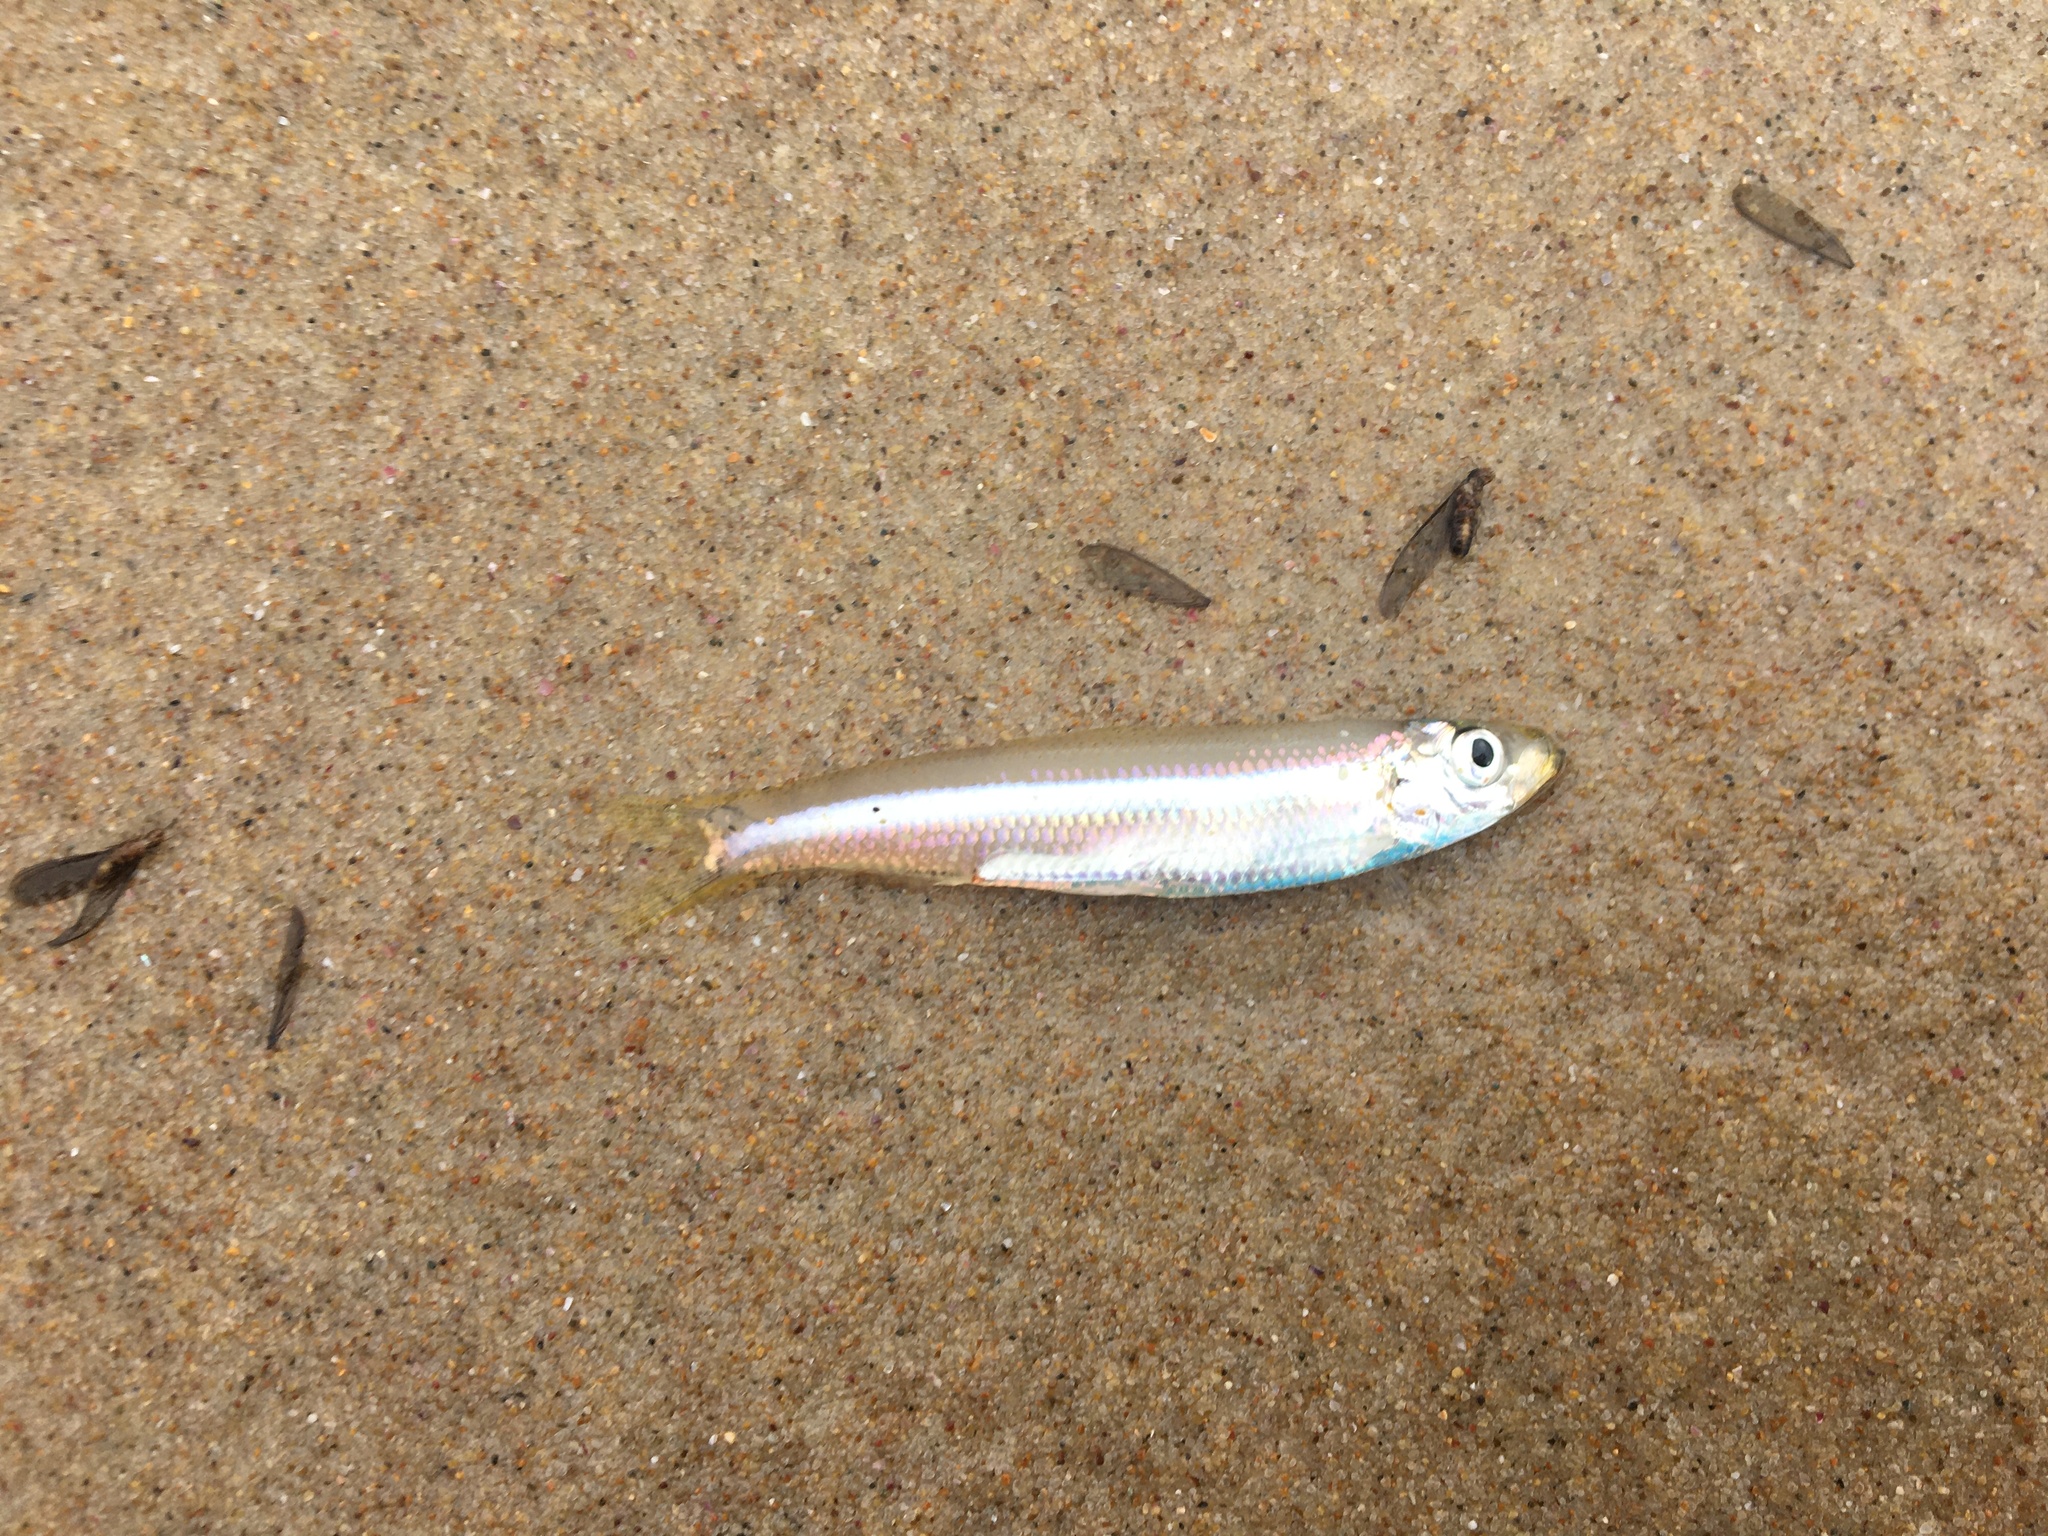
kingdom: Animalia
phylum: Chordata
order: Clupeiformes
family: Clupeidae
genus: Hyperlophus
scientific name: Hyperlophus vittatus
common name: Sandy sprat
